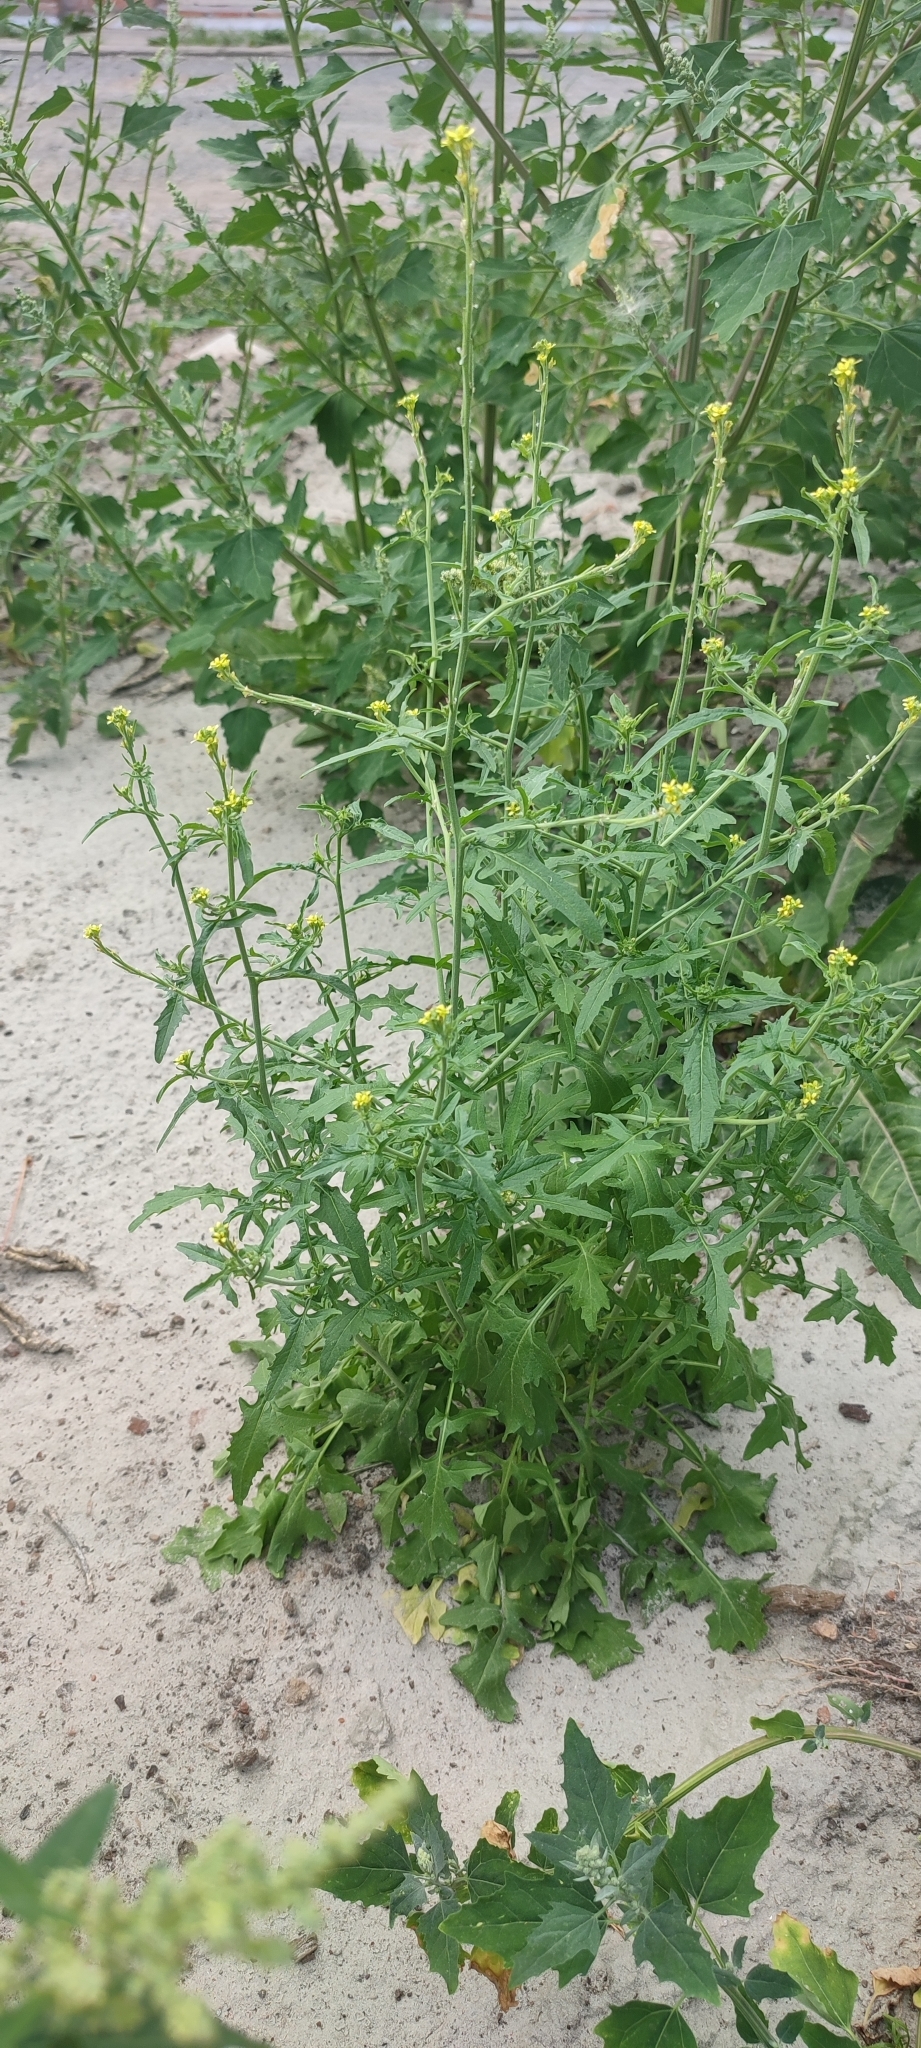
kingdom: Plantae
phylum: Tracheophyta
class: Magnoliopsida
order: Brassicales
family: Brassicaceae
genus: Sisymbrium
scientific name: Sisymbrium officinale
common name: Hedge mustard
